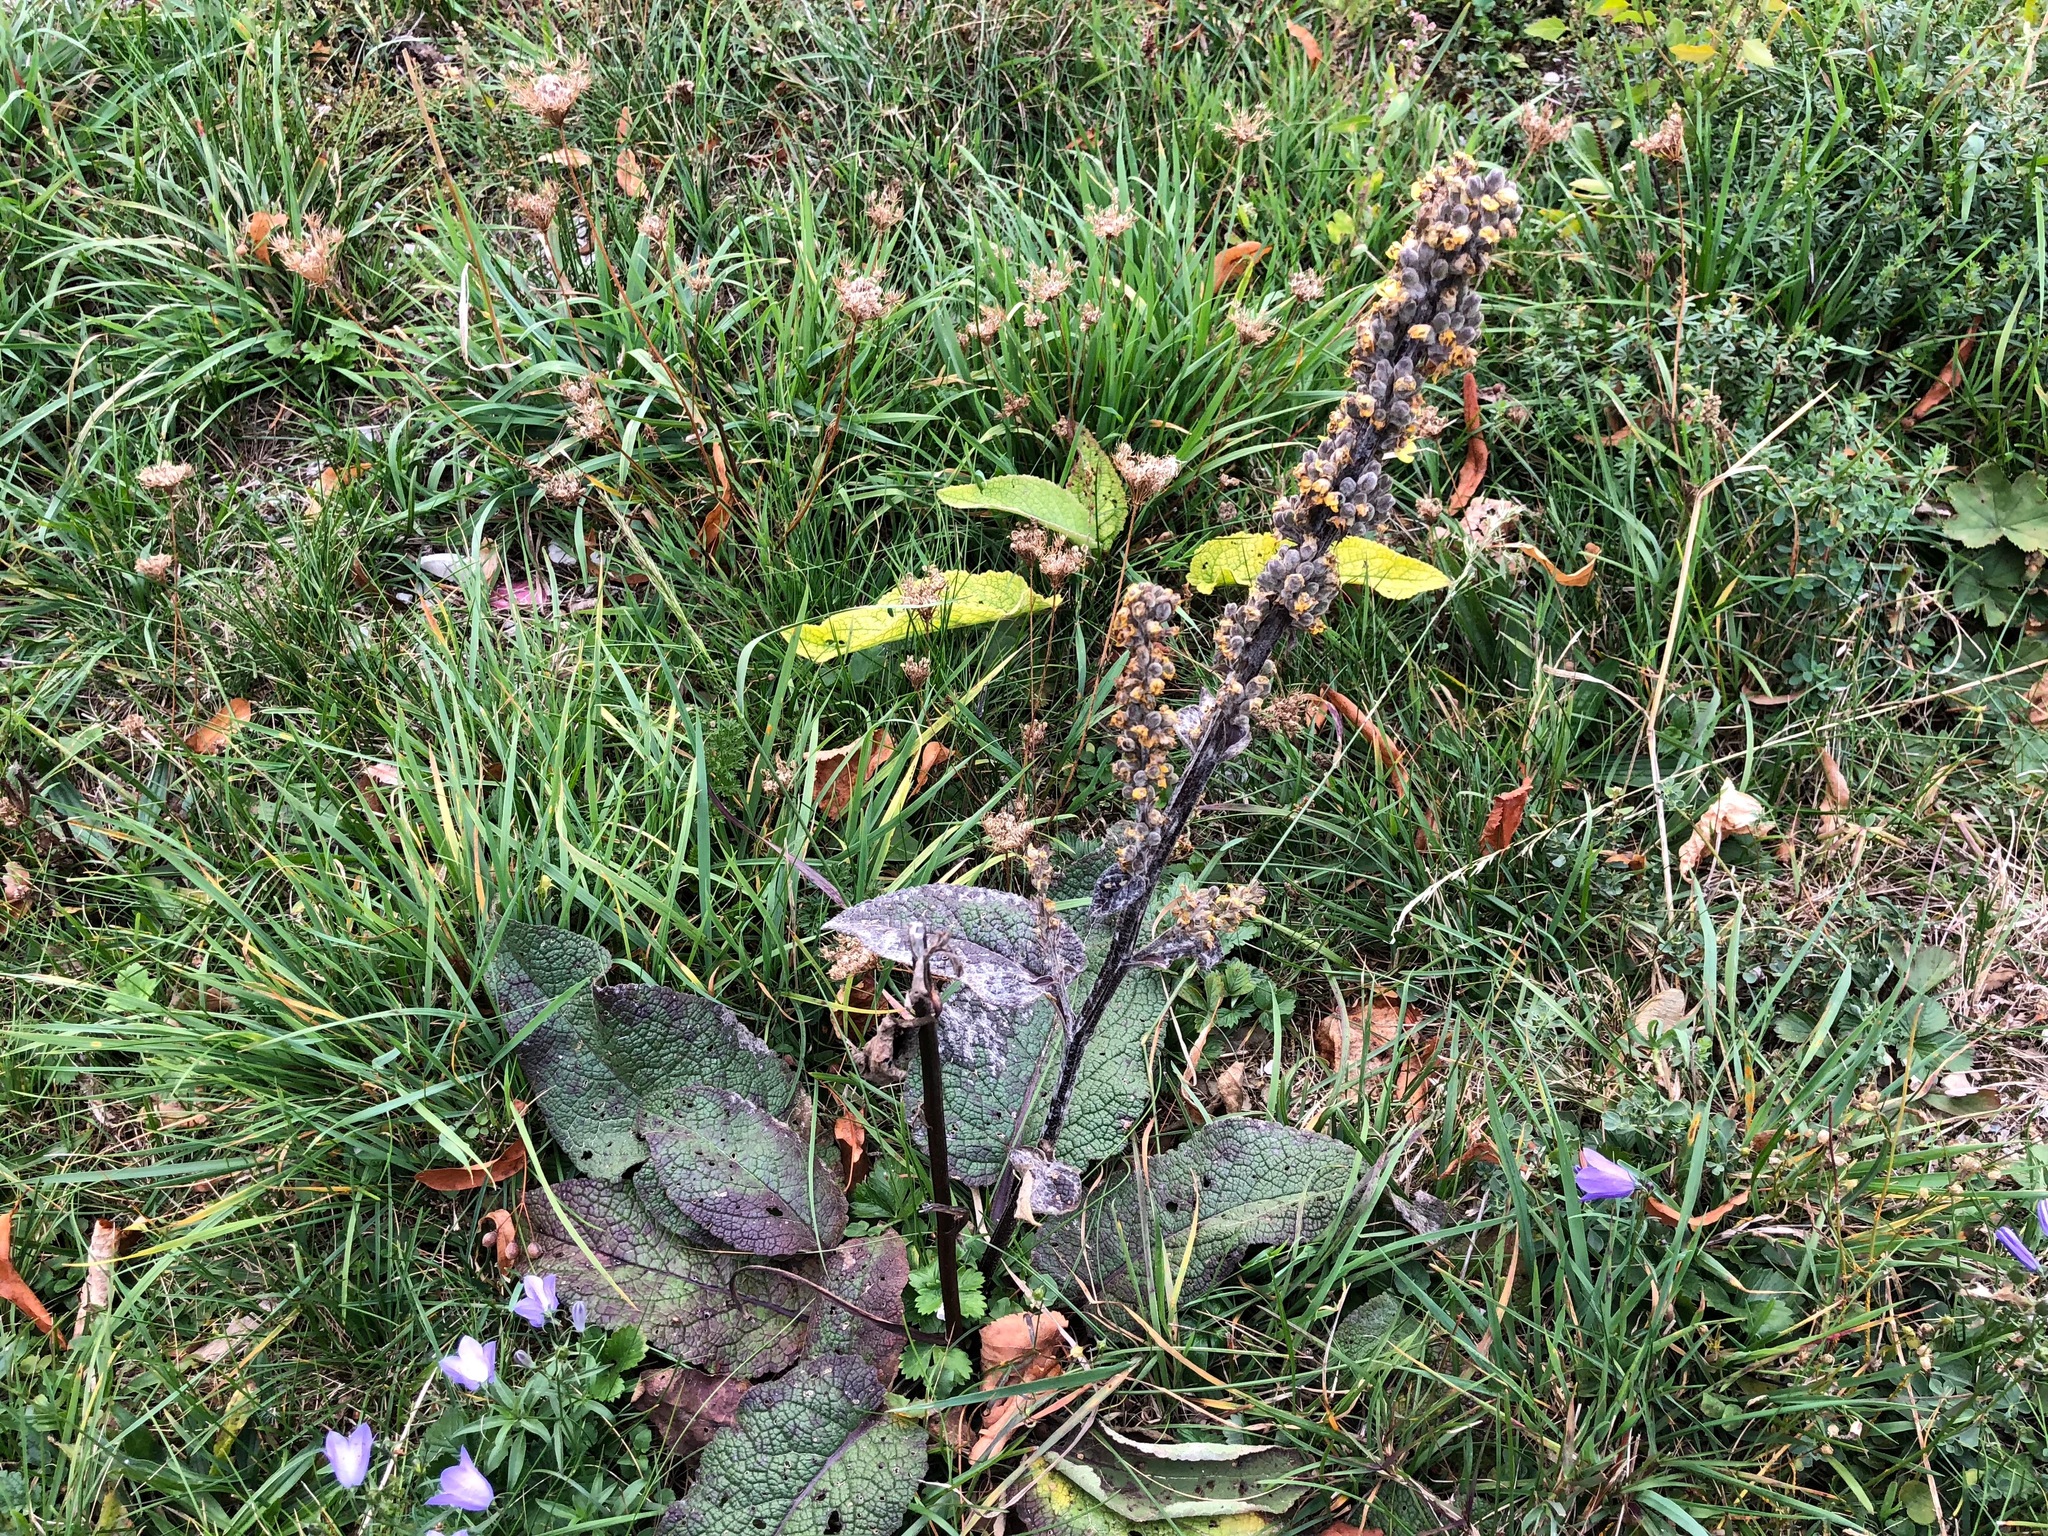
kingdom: Plantae
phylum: Tracheophyta
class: Magnoliopsida
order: Lamiales
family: Scrophulariaceae
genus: Verbascum
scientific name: Verbascum nigrum
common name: Dark mullein
